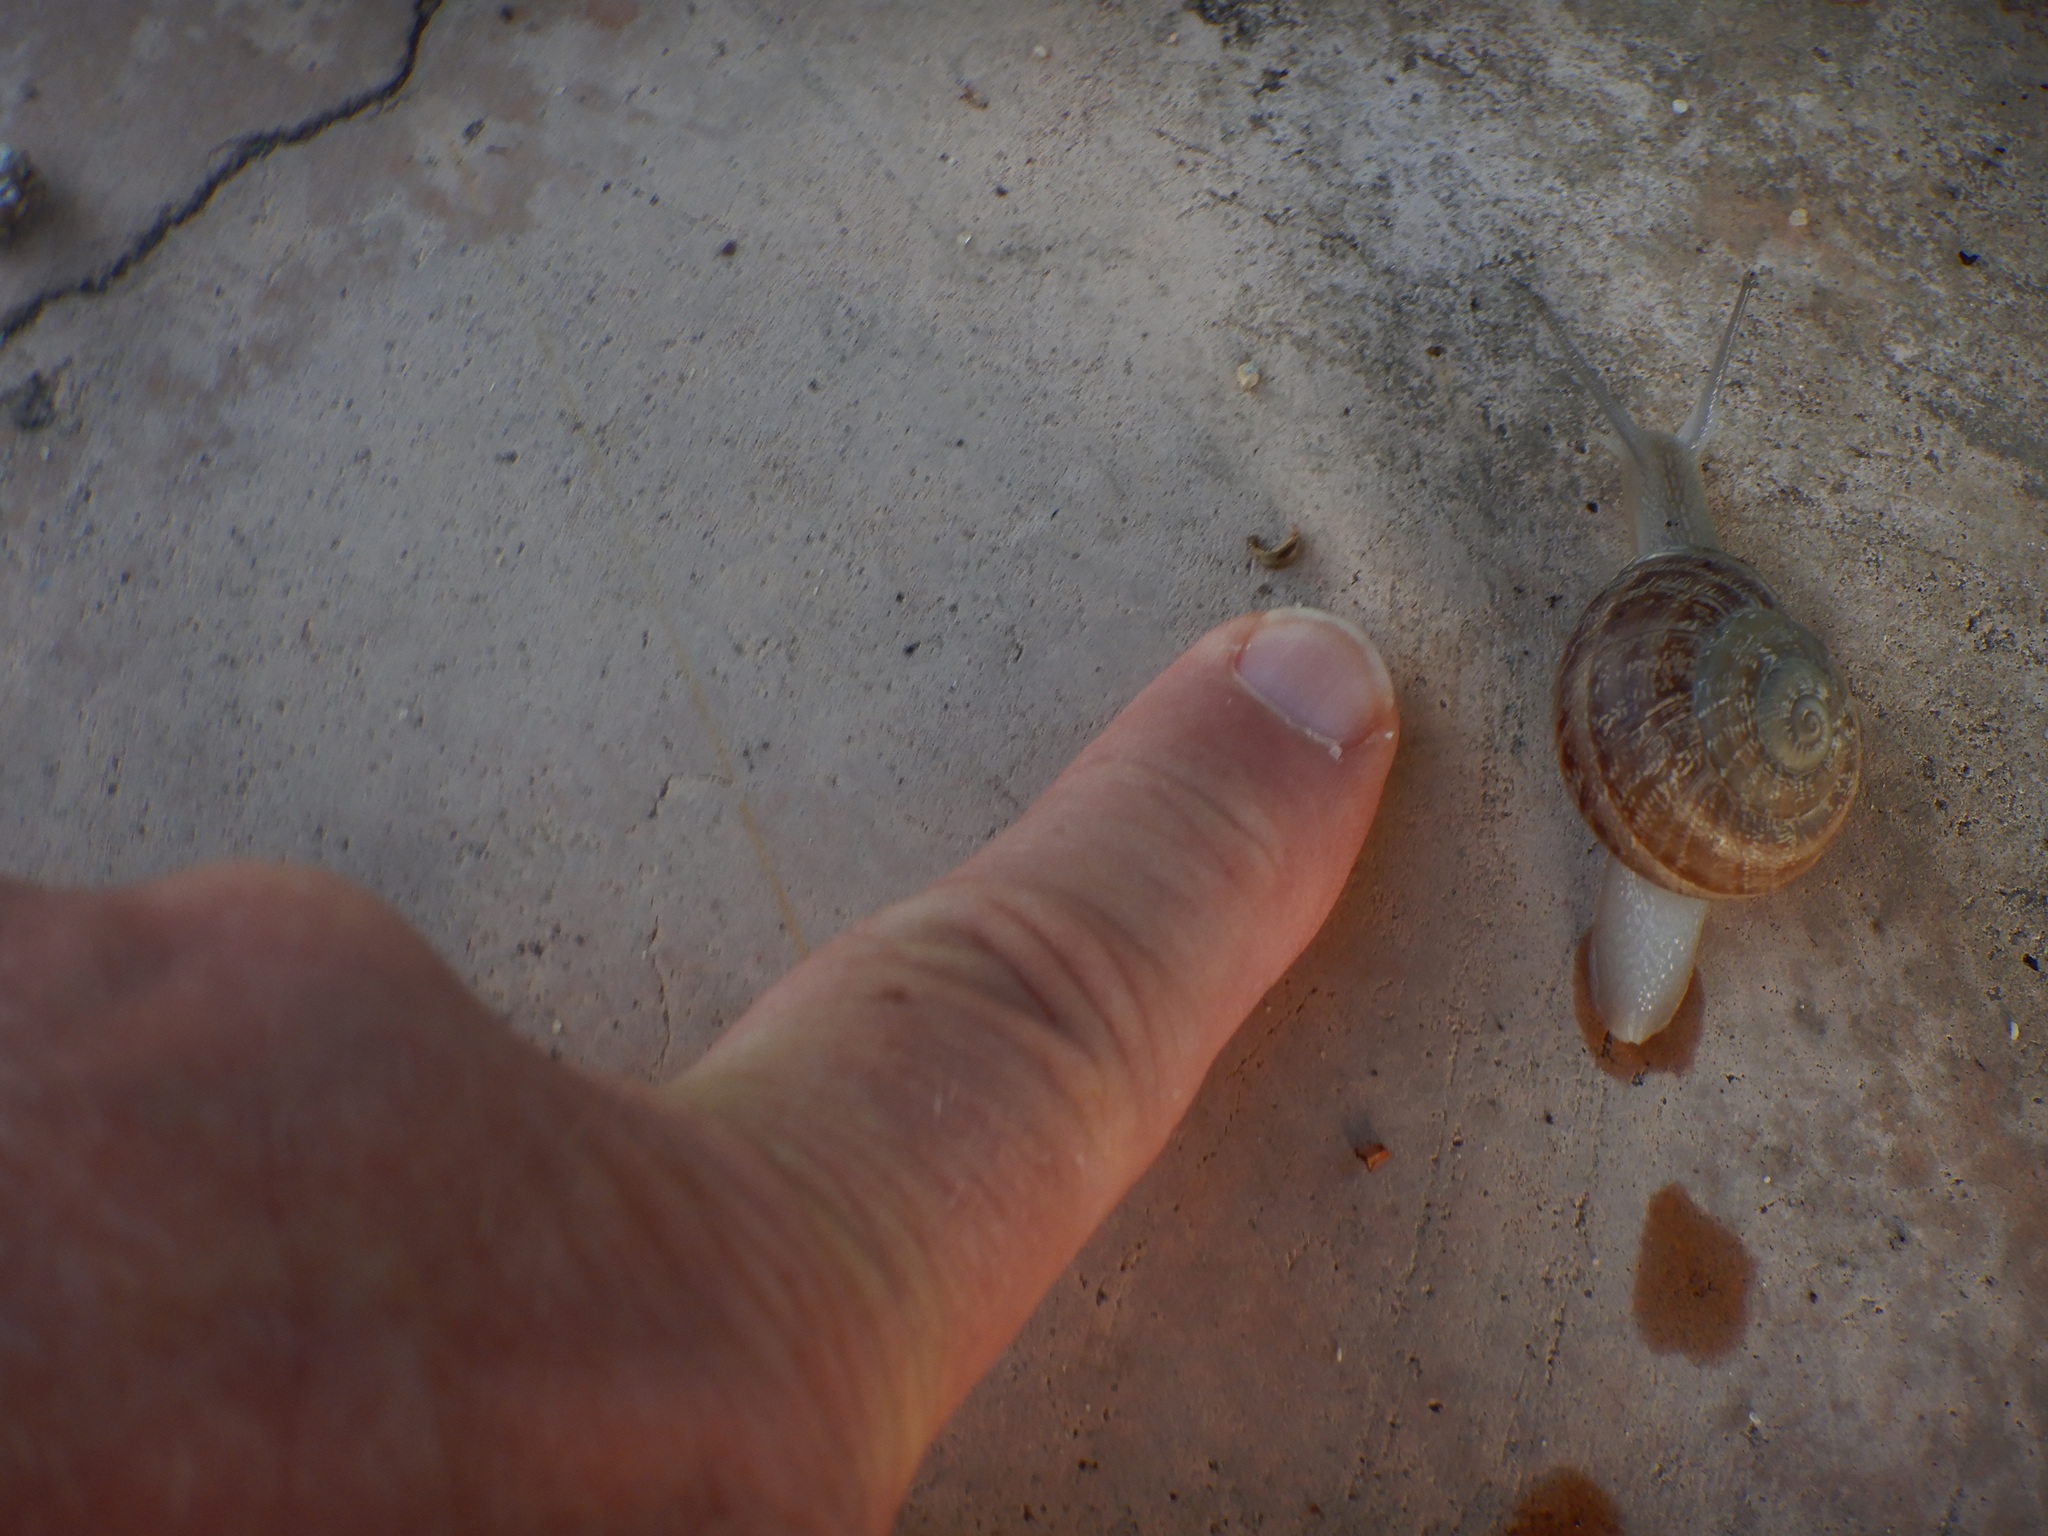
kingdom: Animalia
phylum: Mollusca
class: Gastropoda
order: Stylommatophora
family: Helicidae
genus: Eobania
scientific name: Eobania vermiculata
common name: Chocolateband snail
